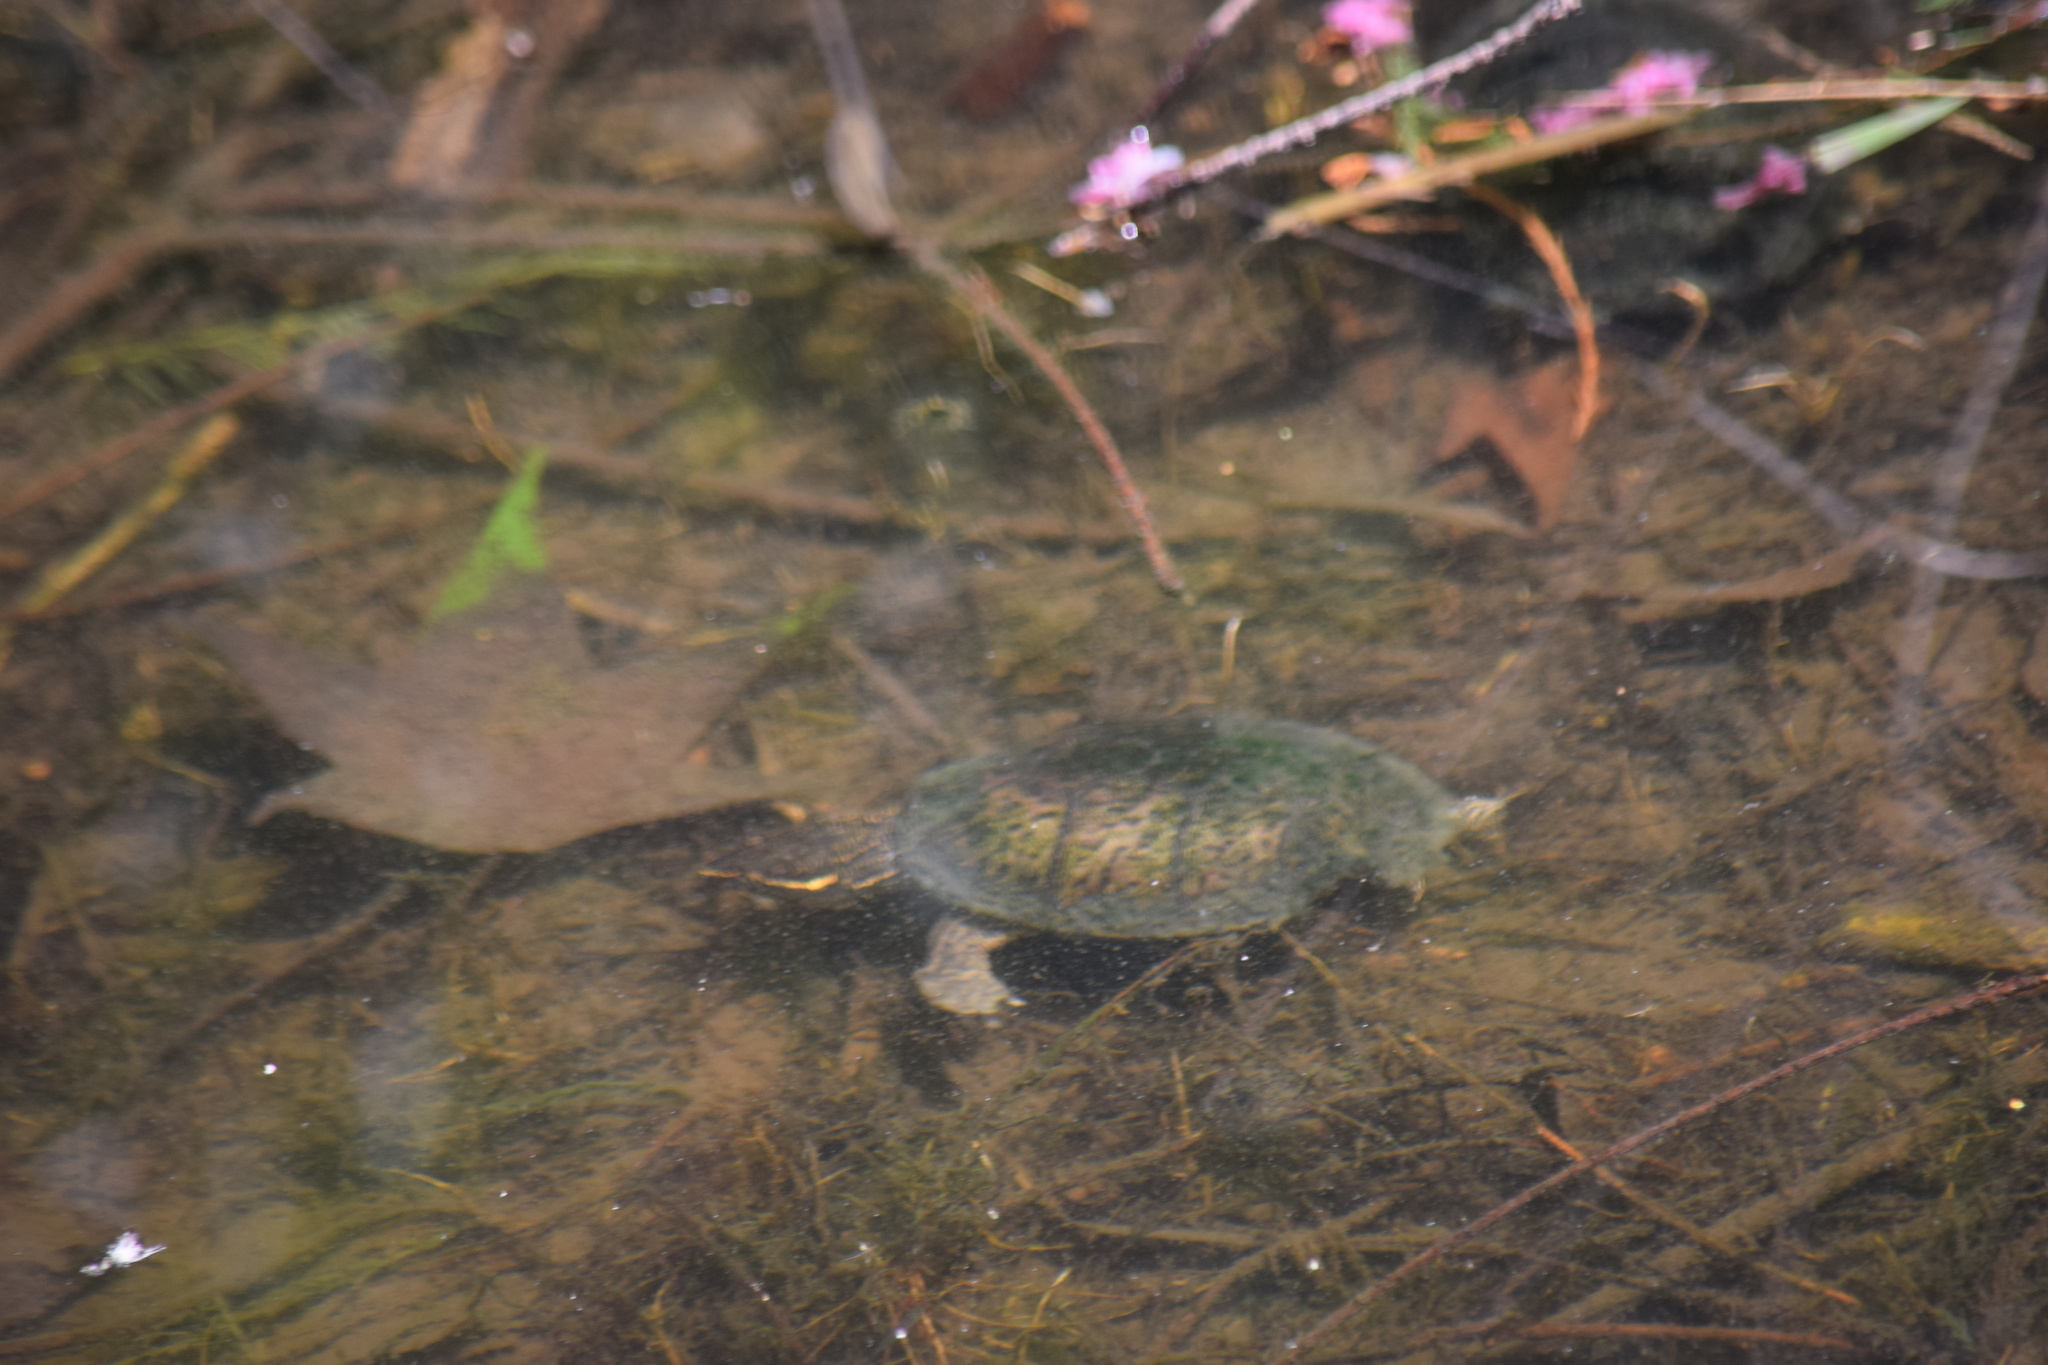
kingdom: Animalia
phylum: Chordata
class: Testudines
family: Kinosternidae
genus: Sternotherus
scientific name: Sternotherus odoratus
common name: Common musk turtle
